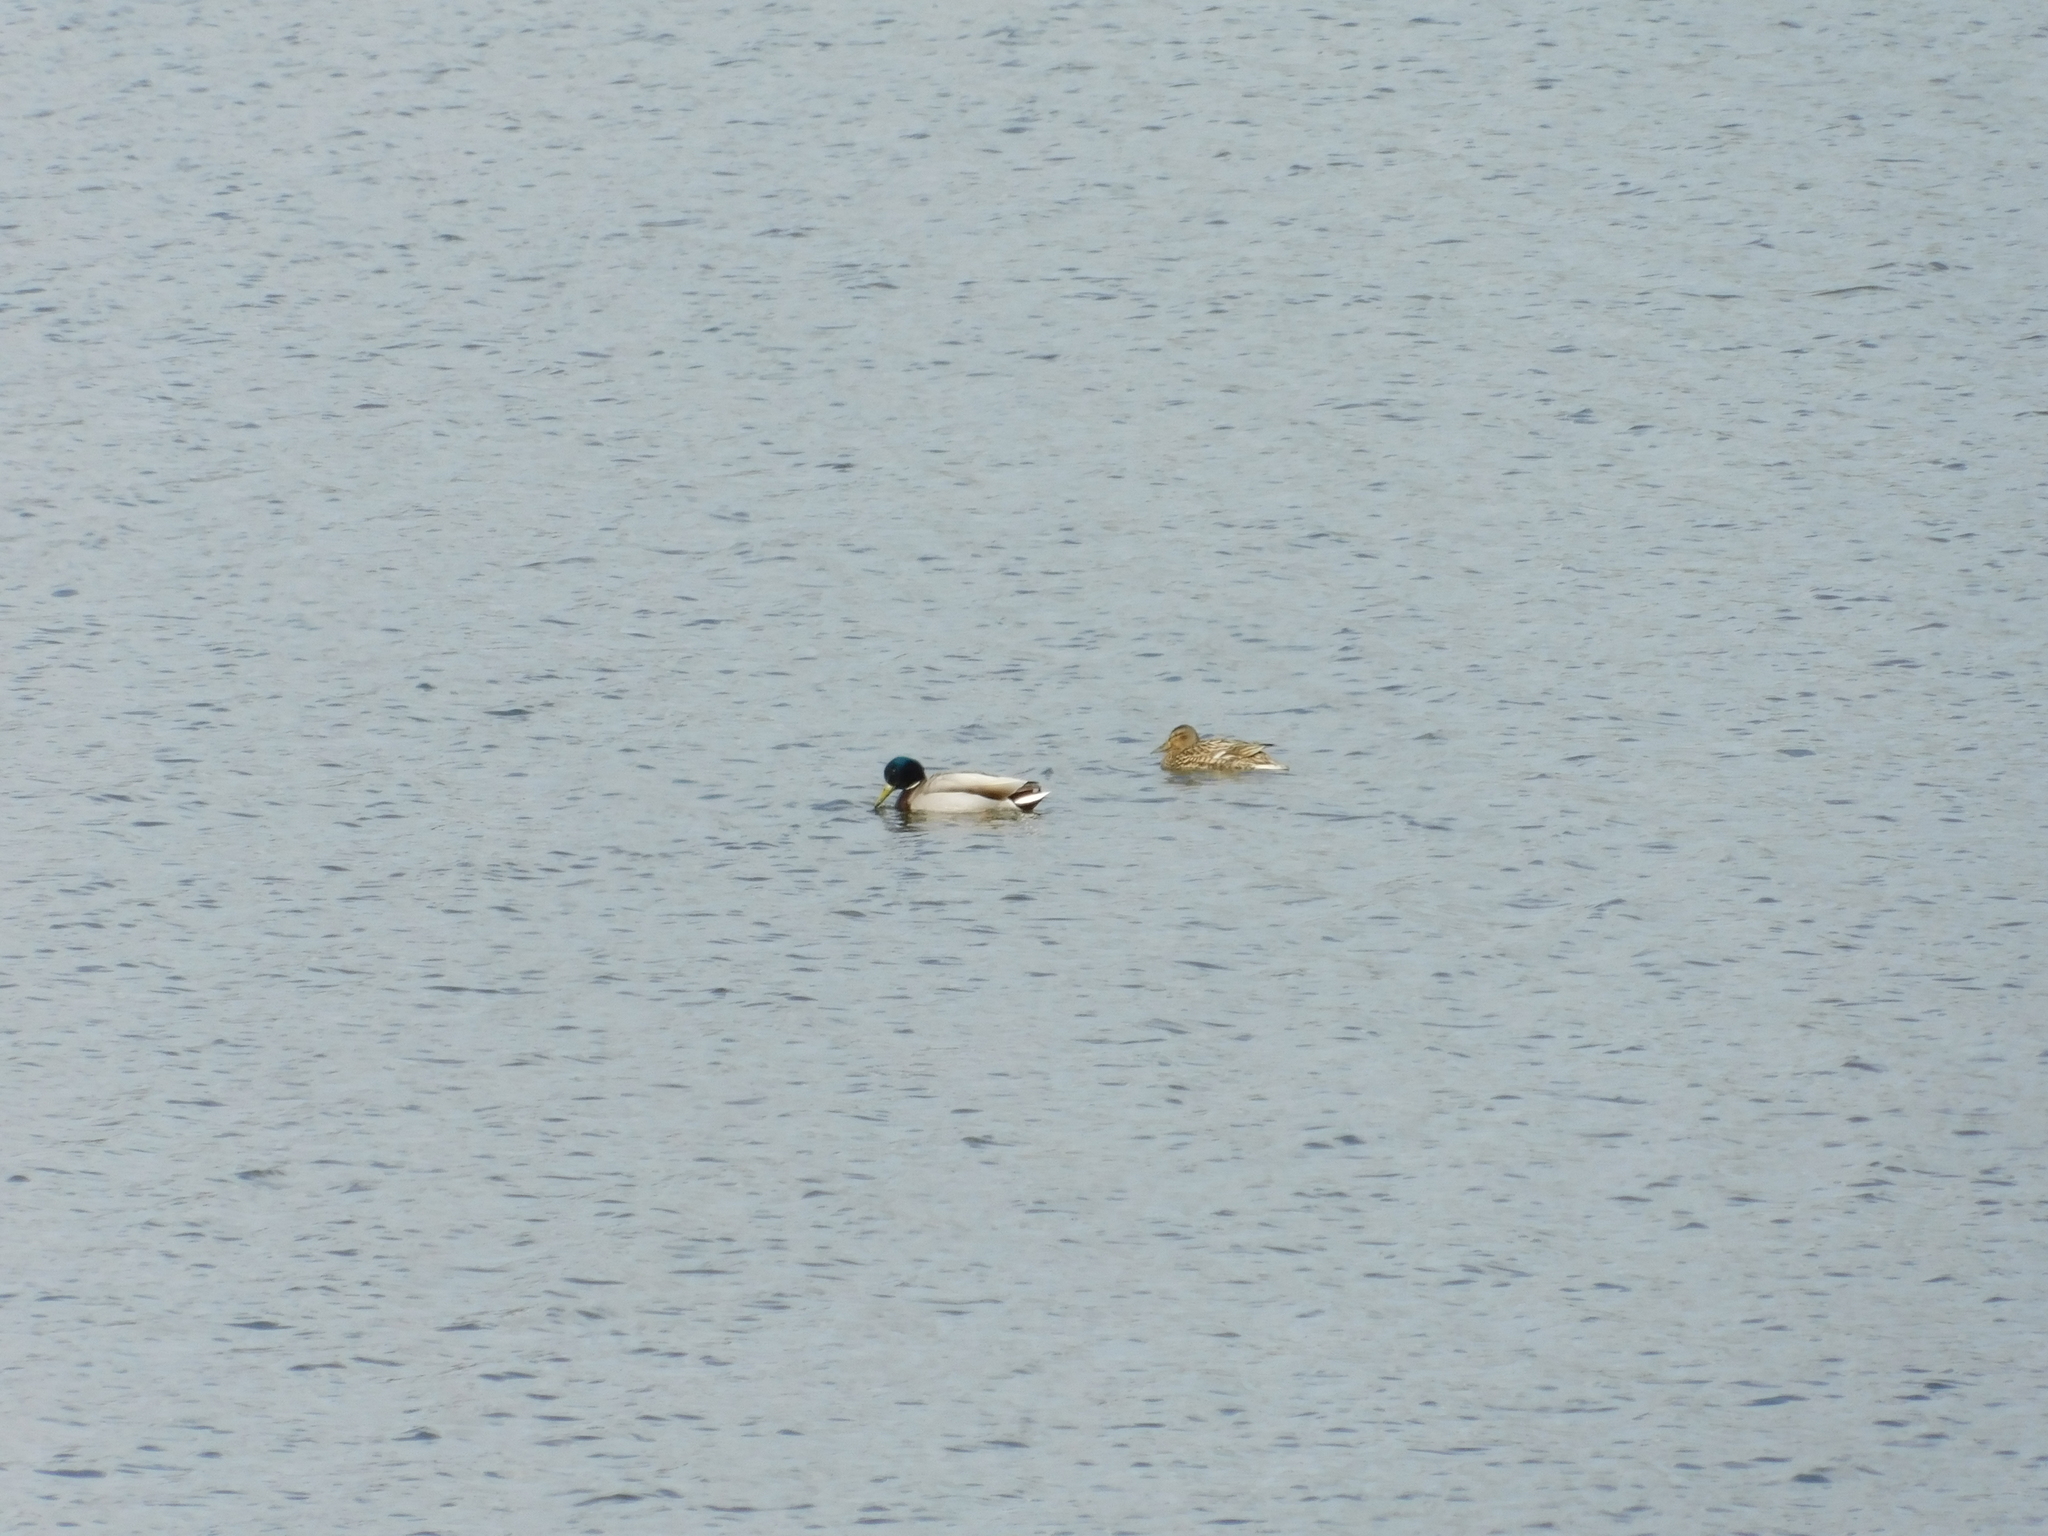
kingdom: Animalia
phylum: Chordata
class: Aves
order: Anseriformes
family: Anatidae
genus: Anas
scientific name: Anas platyrhynchos
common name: Mallard
